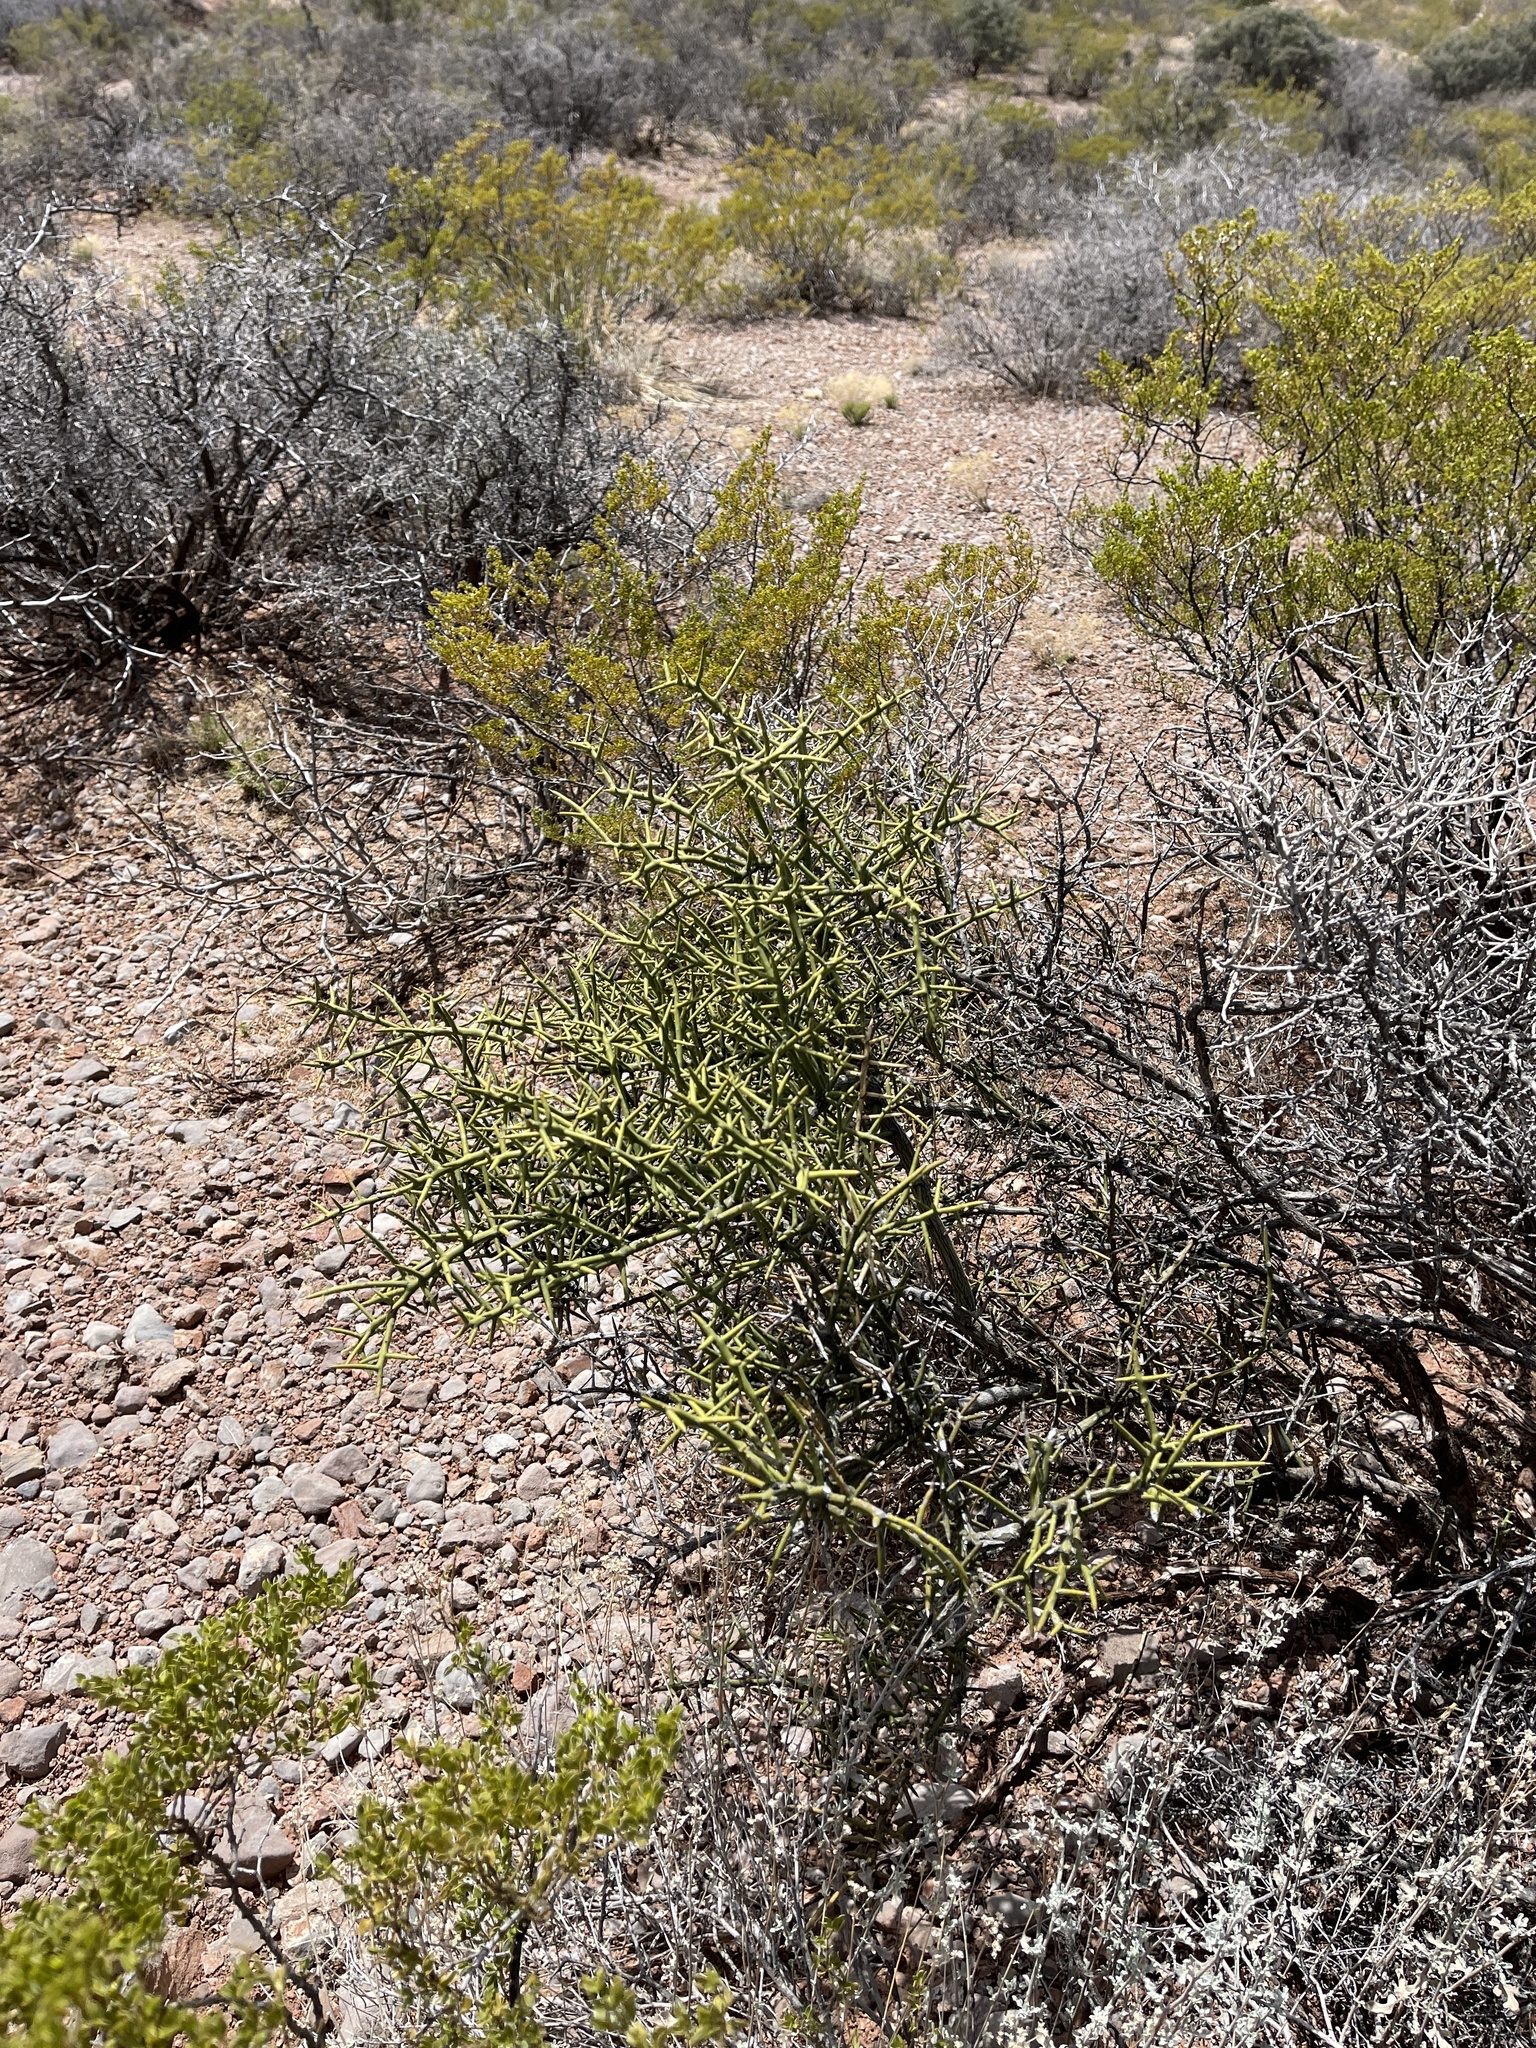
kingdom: Plantae
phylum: Tracheophyta
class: Magnoliopsida
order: Brassicales
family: Koeberliniaceae
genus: Koeberlinia
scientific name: Koeberlinia spinosa
